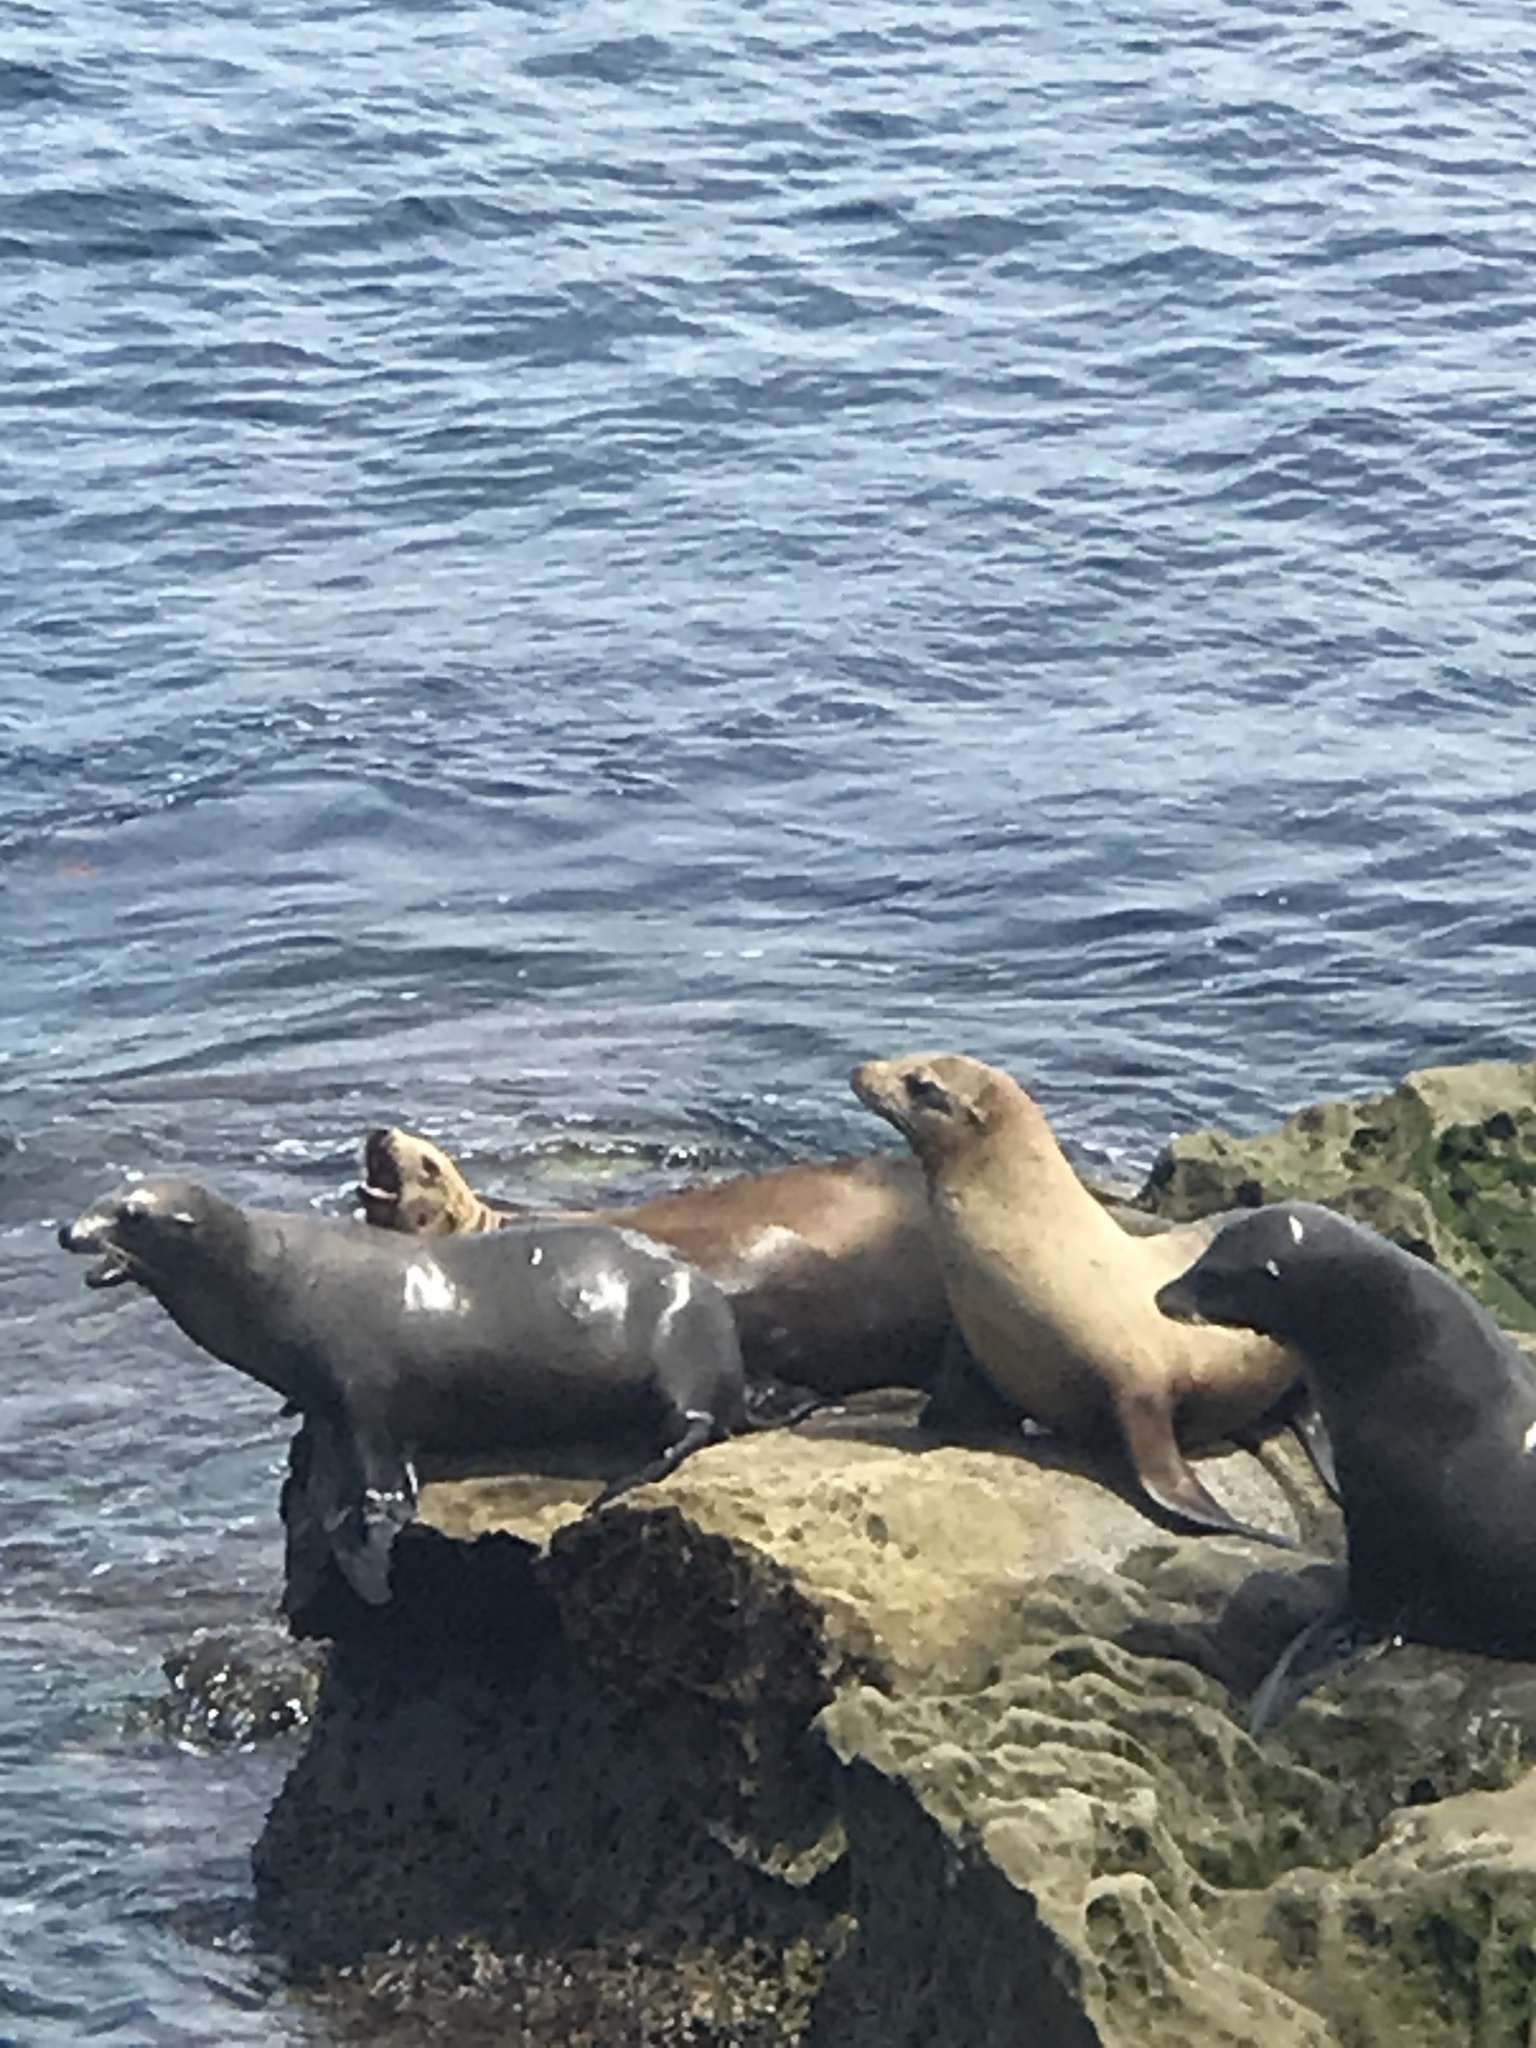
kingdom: Animalia
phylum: Chordata
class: Mammalia
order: Carnivora
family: Otariidae
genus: Zalophus
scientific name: Zalophus californianus
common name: California sea lion
